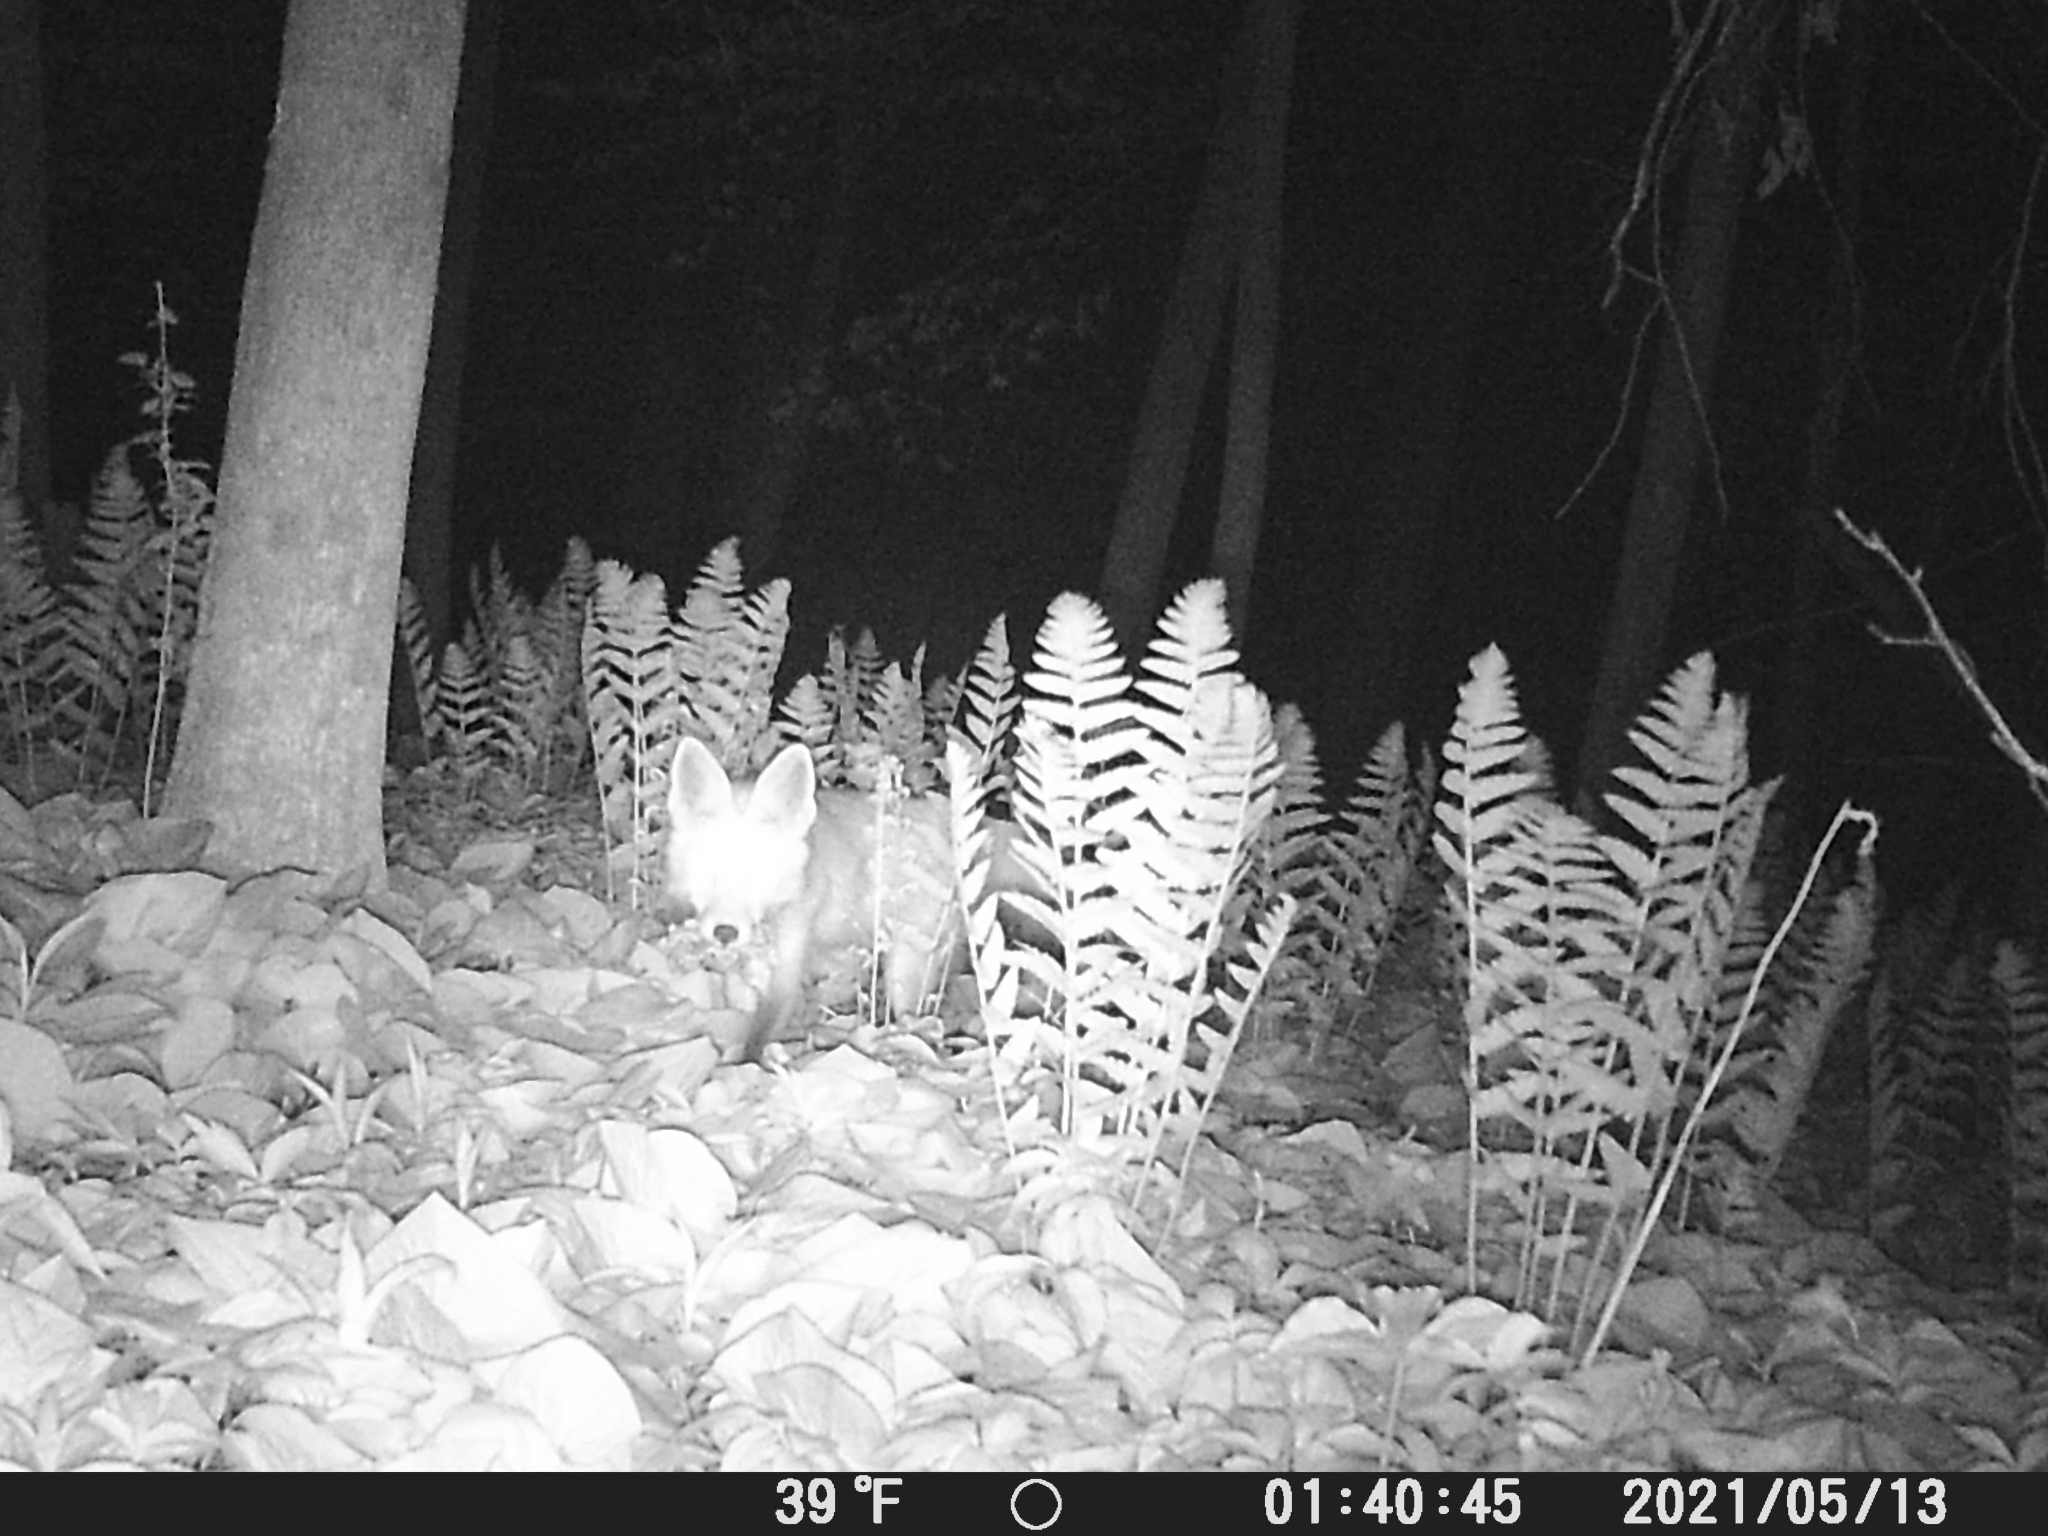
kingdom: Animalia
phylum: Chordata
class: Mammalia
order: Carnivora
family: Canidae
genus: Vulpes
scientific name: Vulpes vulpes
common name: Red fox
